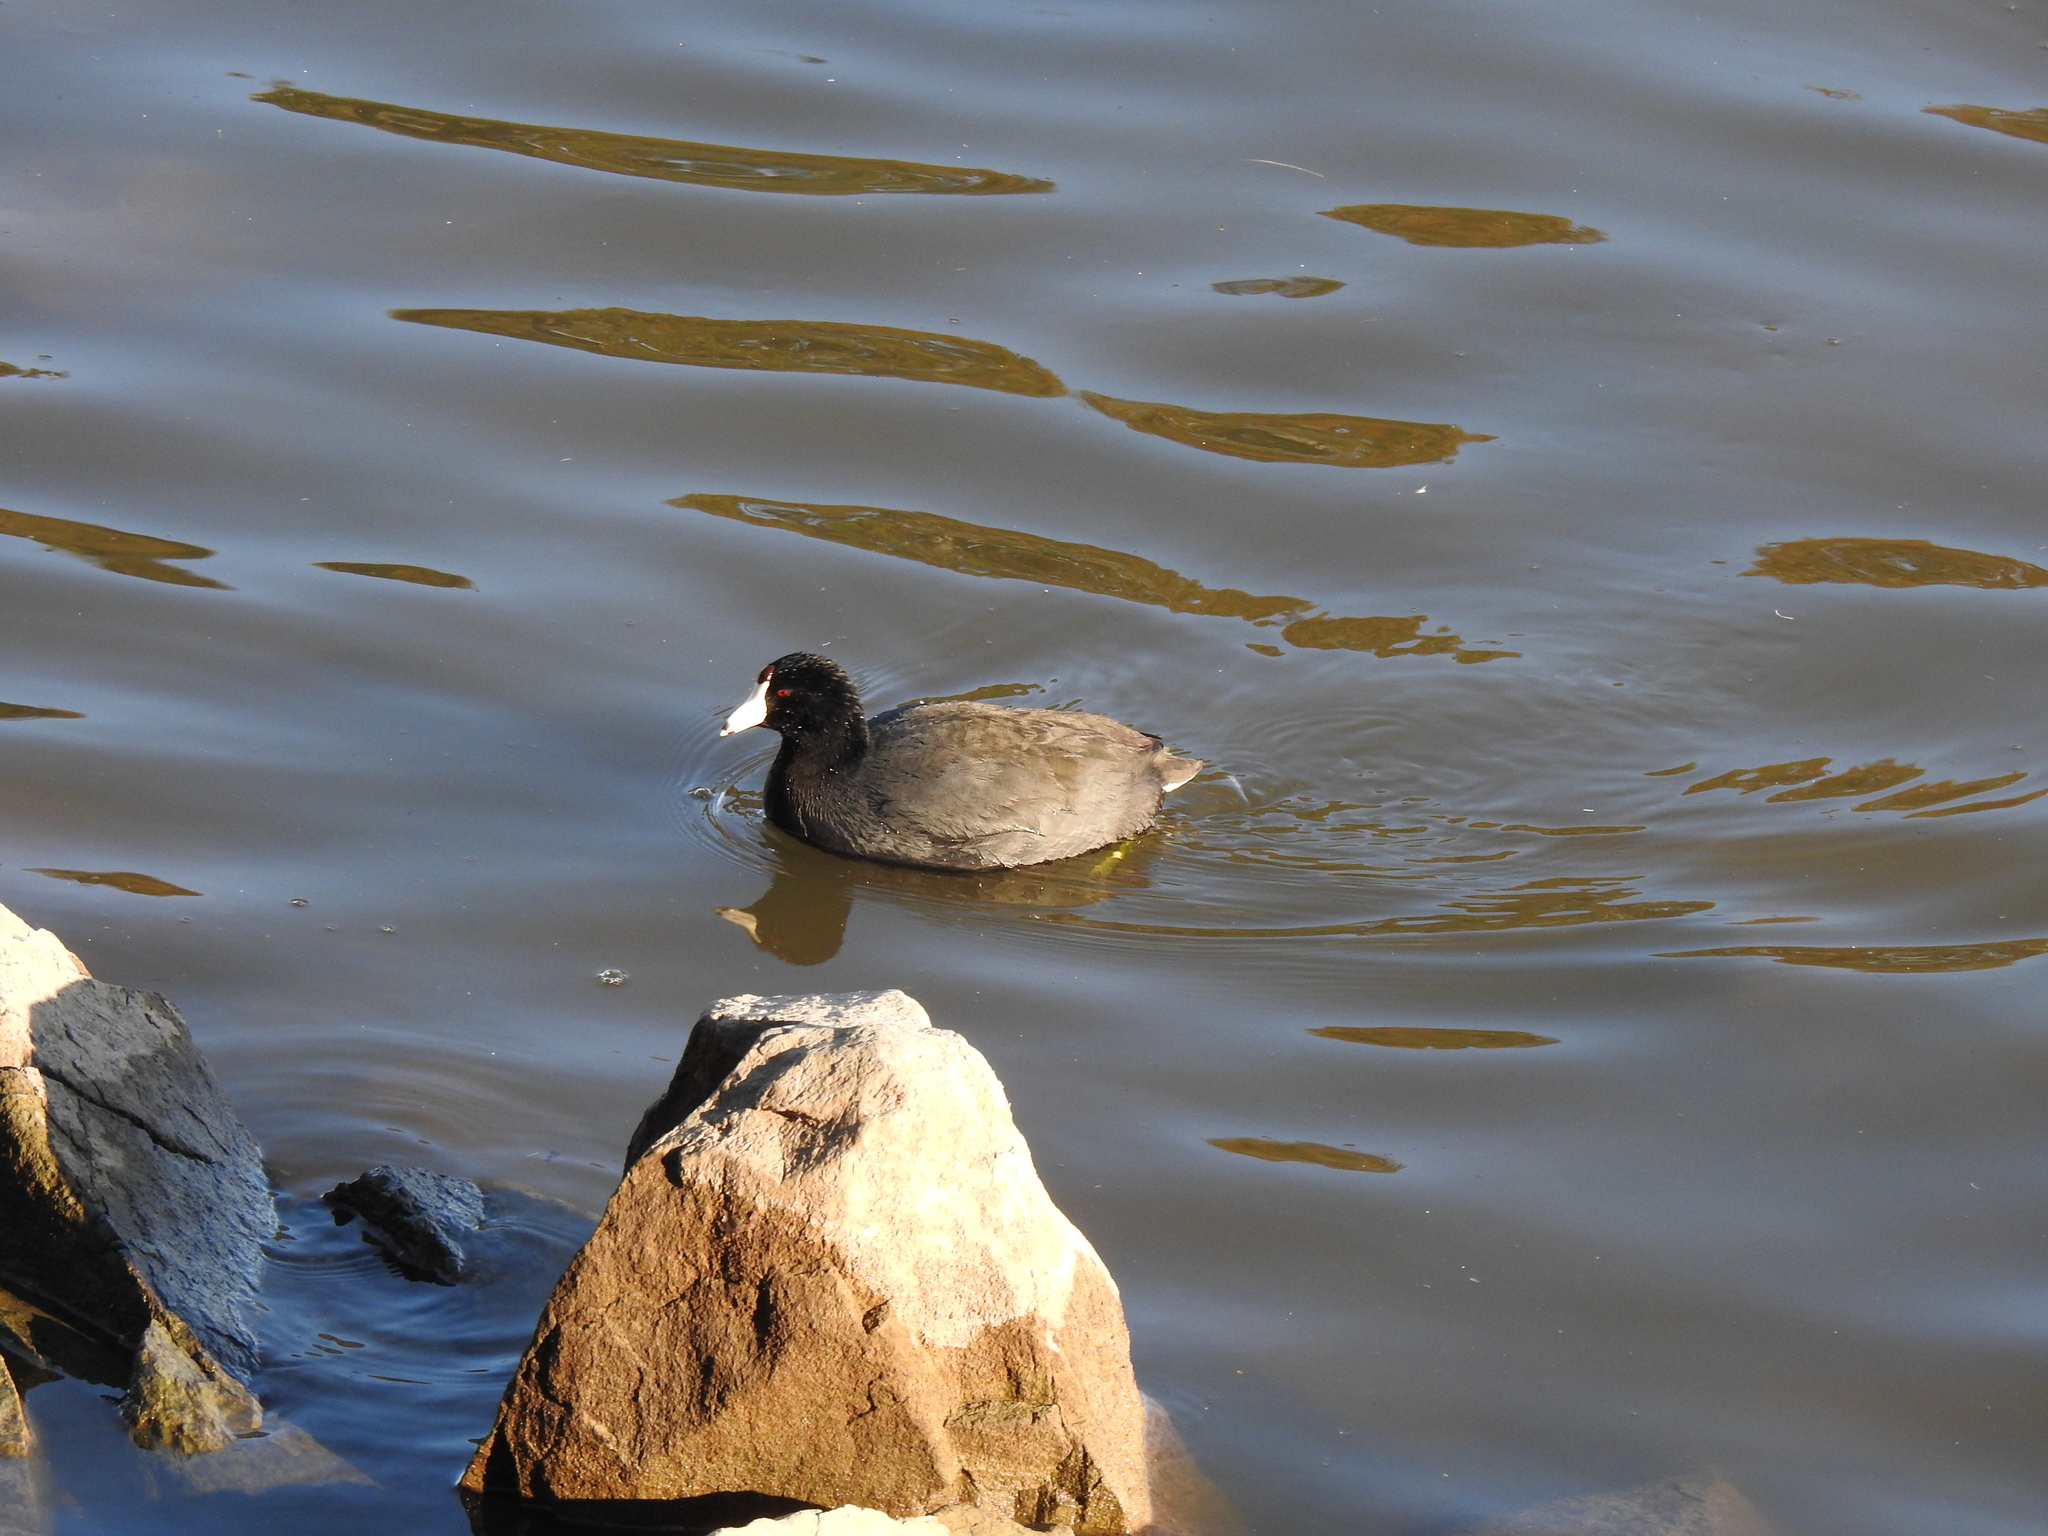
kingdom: Animalia
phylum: Chordata
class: Aves
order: Gruiformes
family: Rallidae
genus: Fulica
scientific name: Fulica americana
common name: American coot
